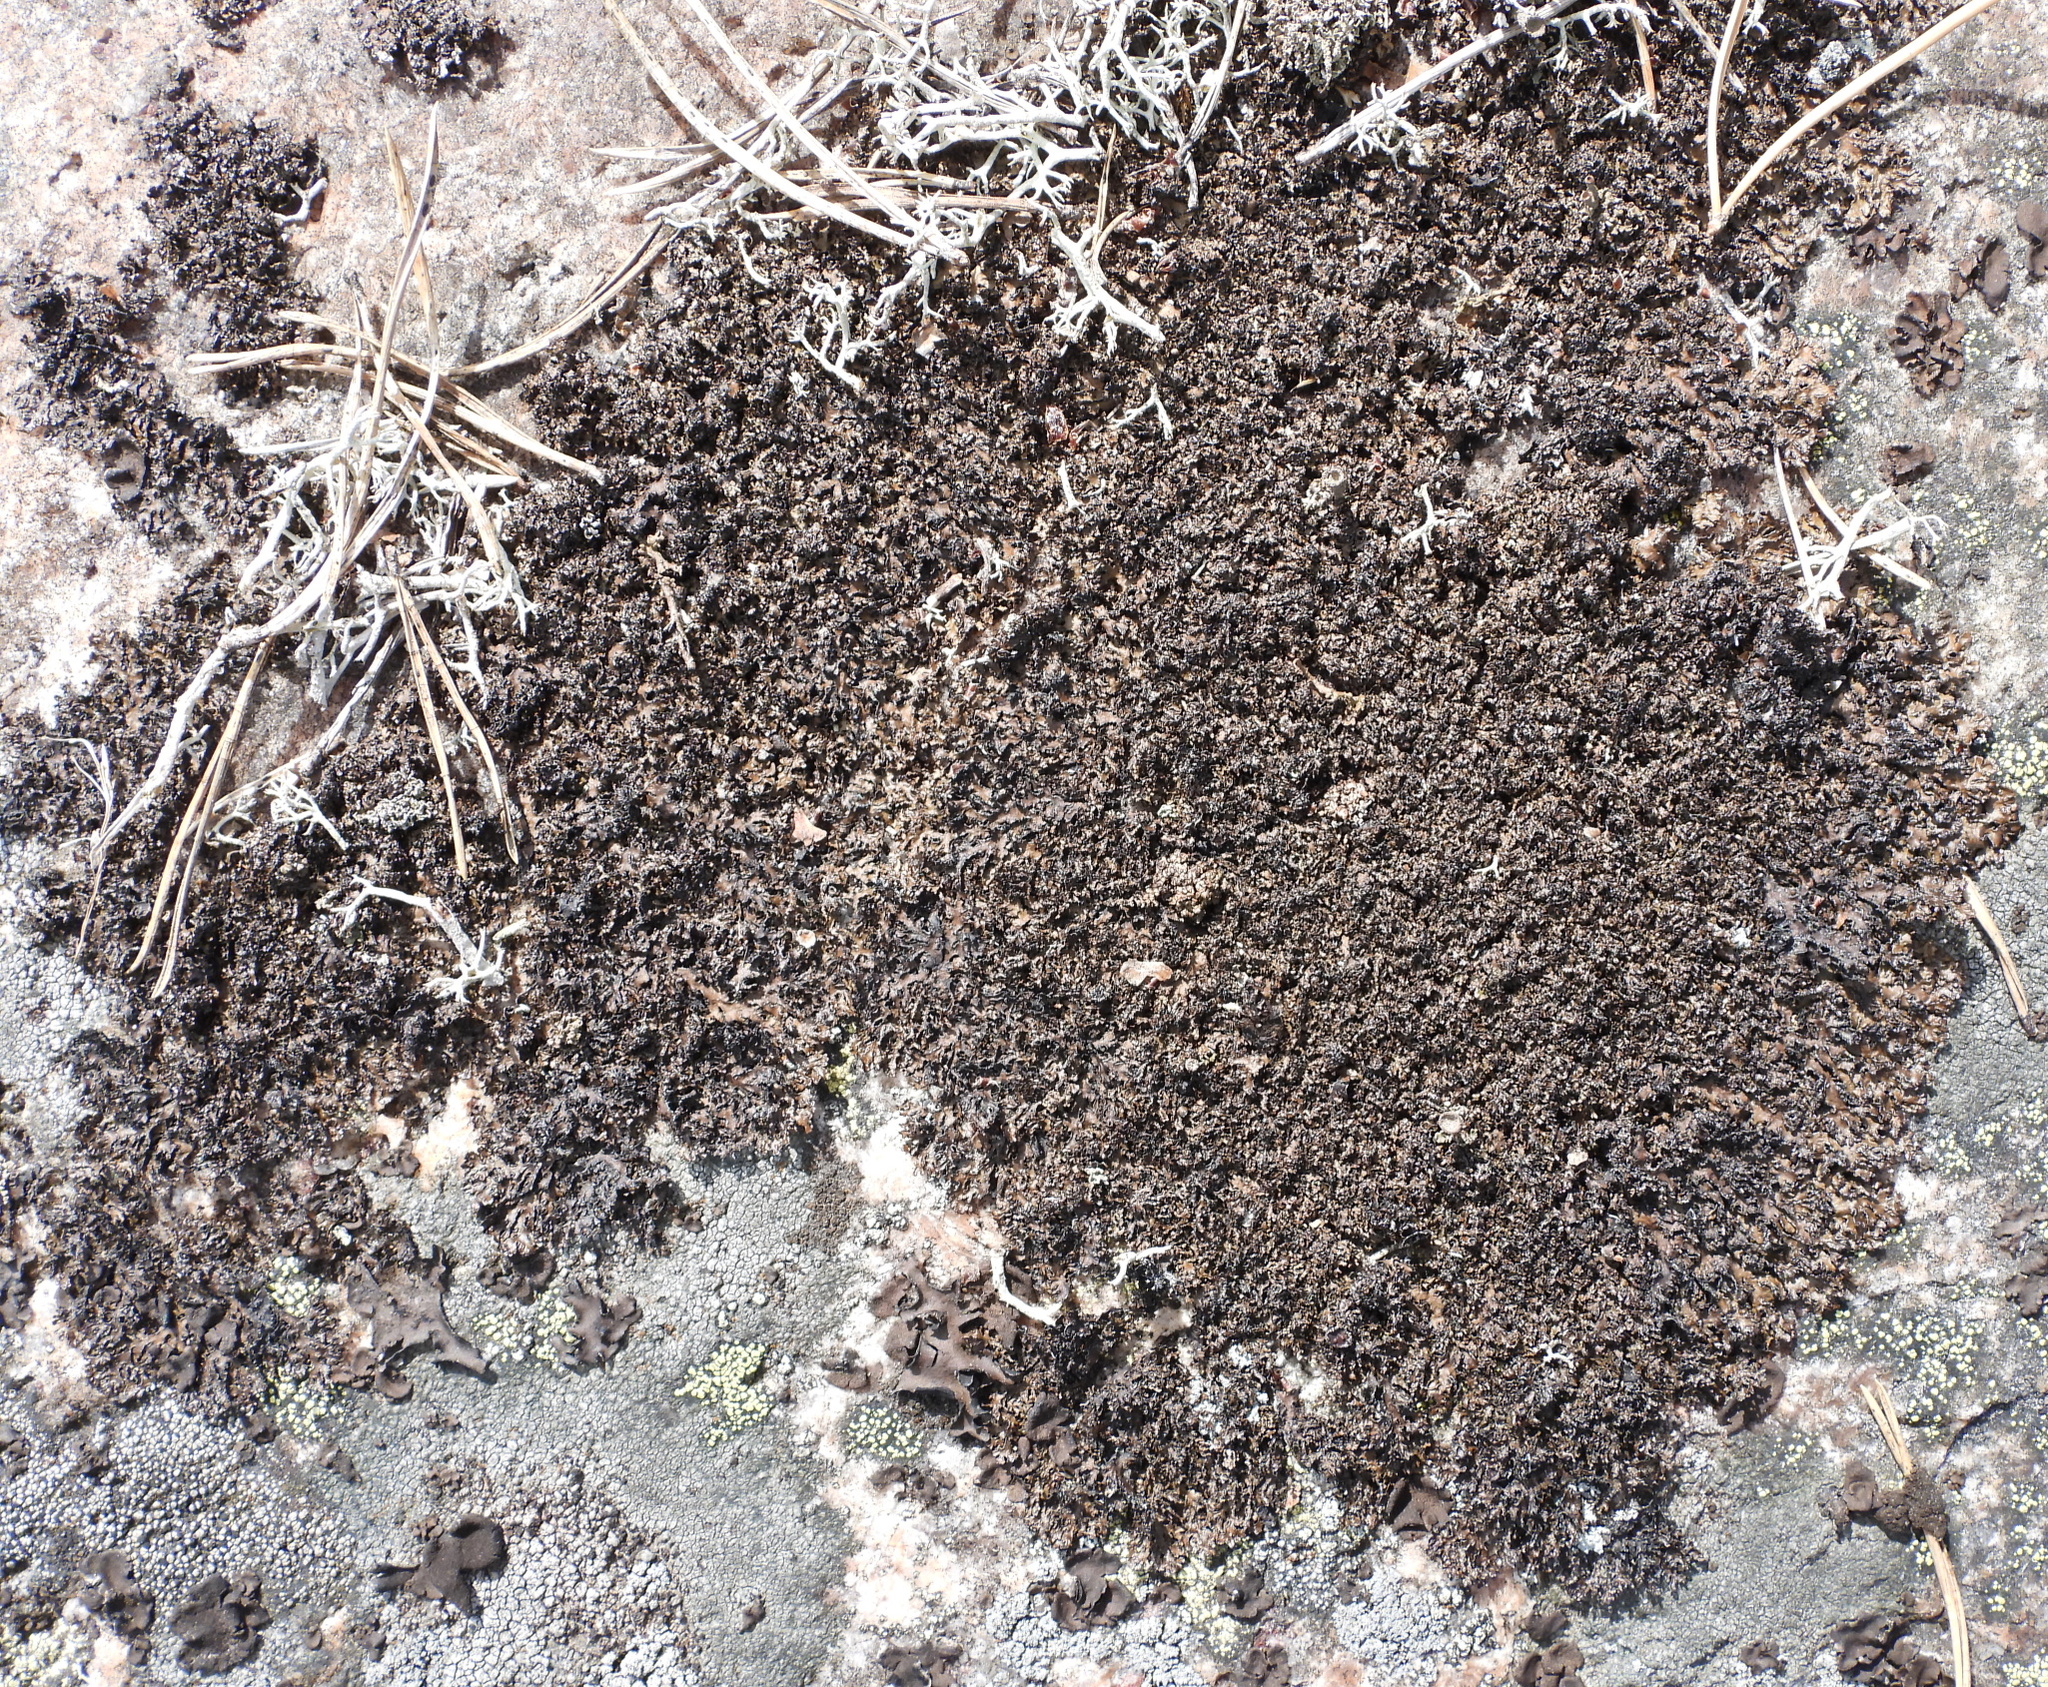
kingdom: Fungi
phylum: Ascomycota
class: Lecanoromycetes
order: Lecanorales
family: Parmeliaceae
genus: Melanelia
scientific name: Melanelia hepatizon
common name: Rimmed camouflage lichen
